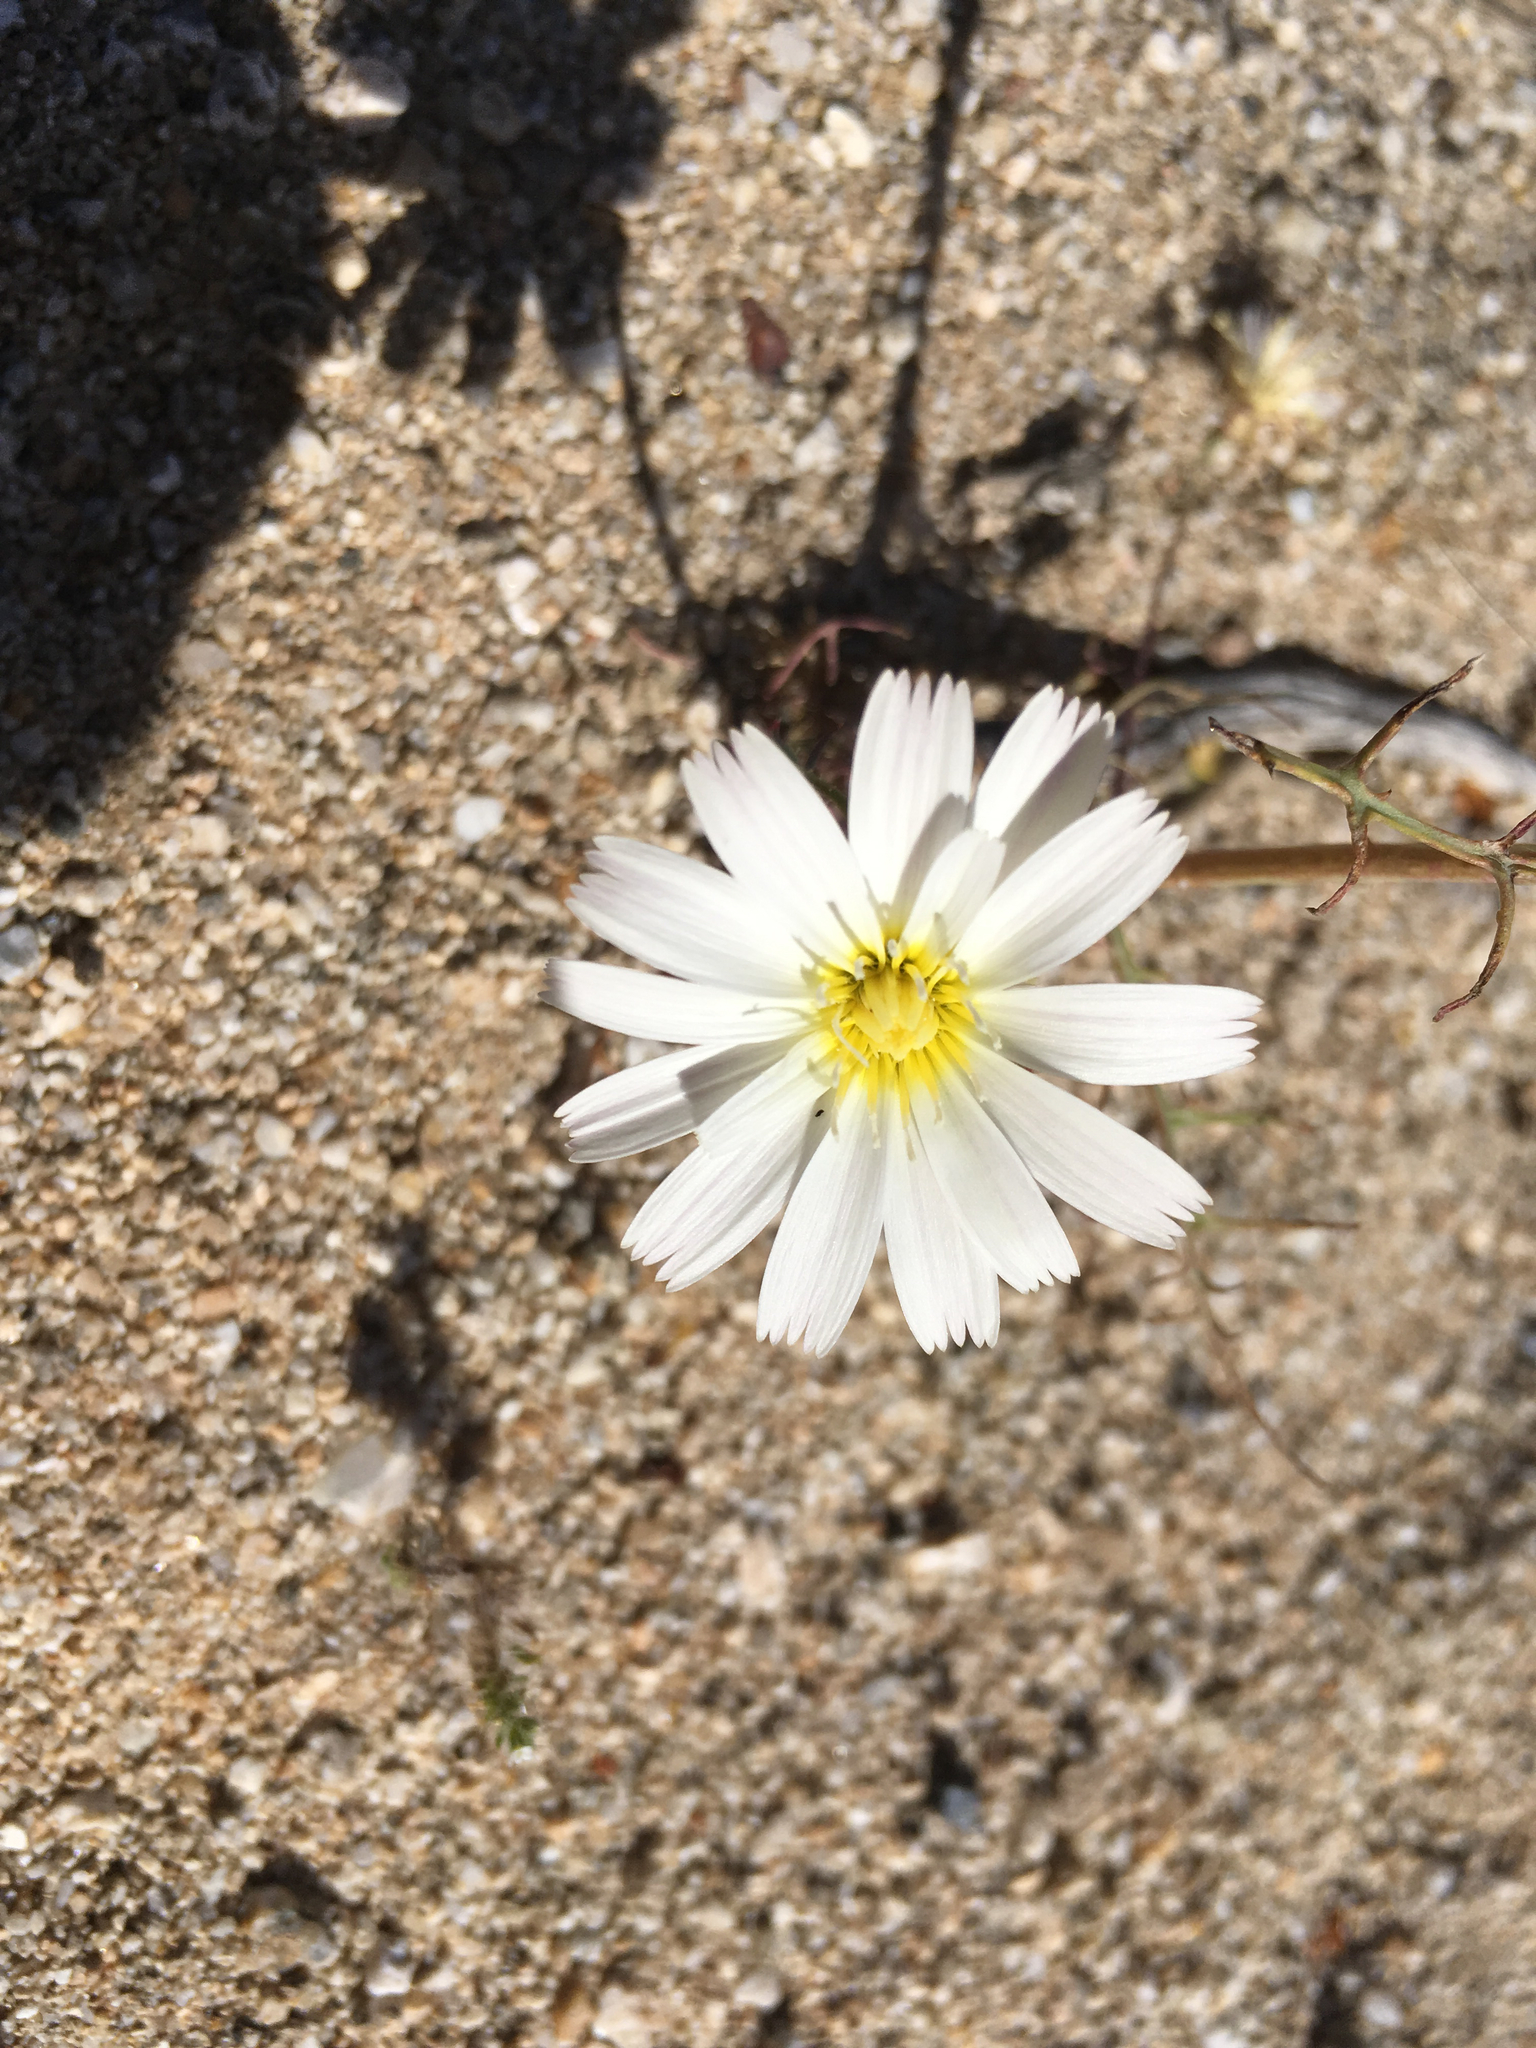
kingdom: Plantae
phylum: Tracheophyta
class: Magnoliopsida
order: Asterales
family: Asteraceae
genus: Calycoseris
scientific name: Calycoseris wrightii
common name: White tackstem
